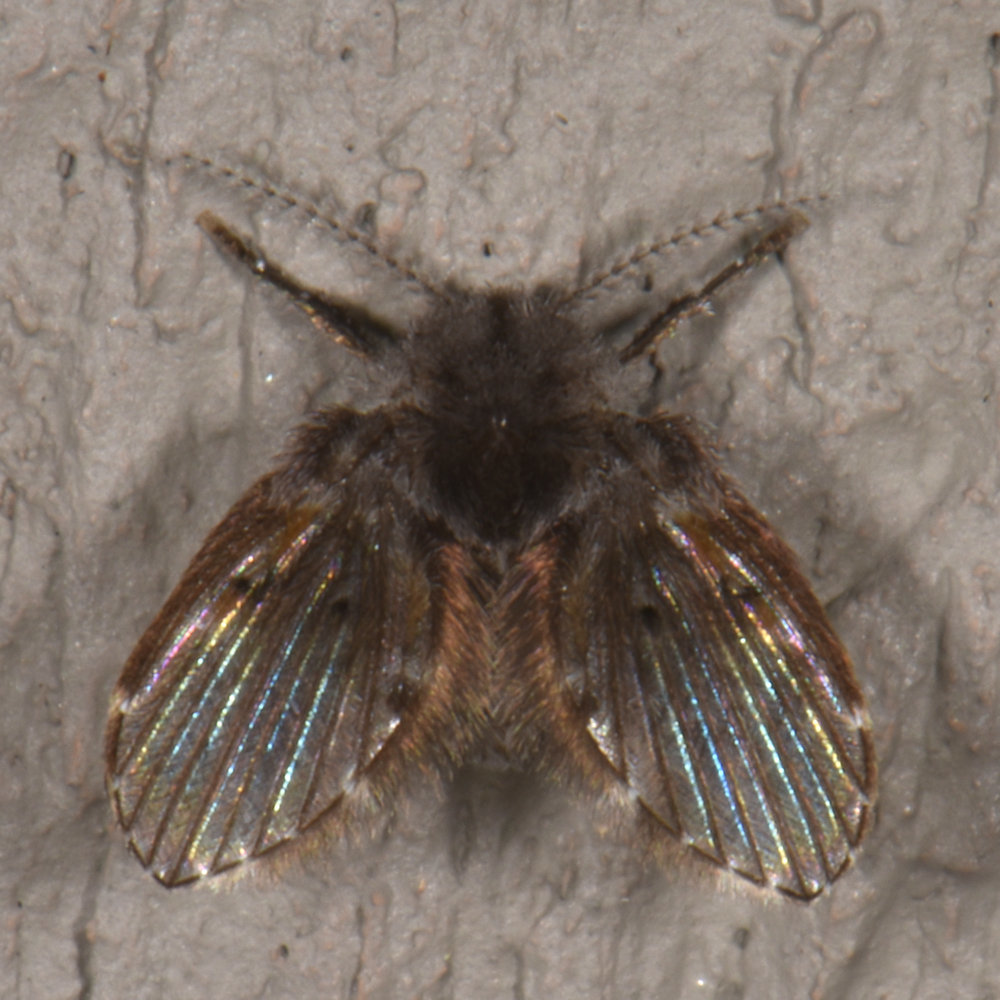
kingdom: Animalia
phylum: Arthropoda
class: Insecta
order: Diptera
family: Psychodidae
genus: Clogmia
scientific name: Clogmia albipunctatus
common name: White-spotted moth fly
